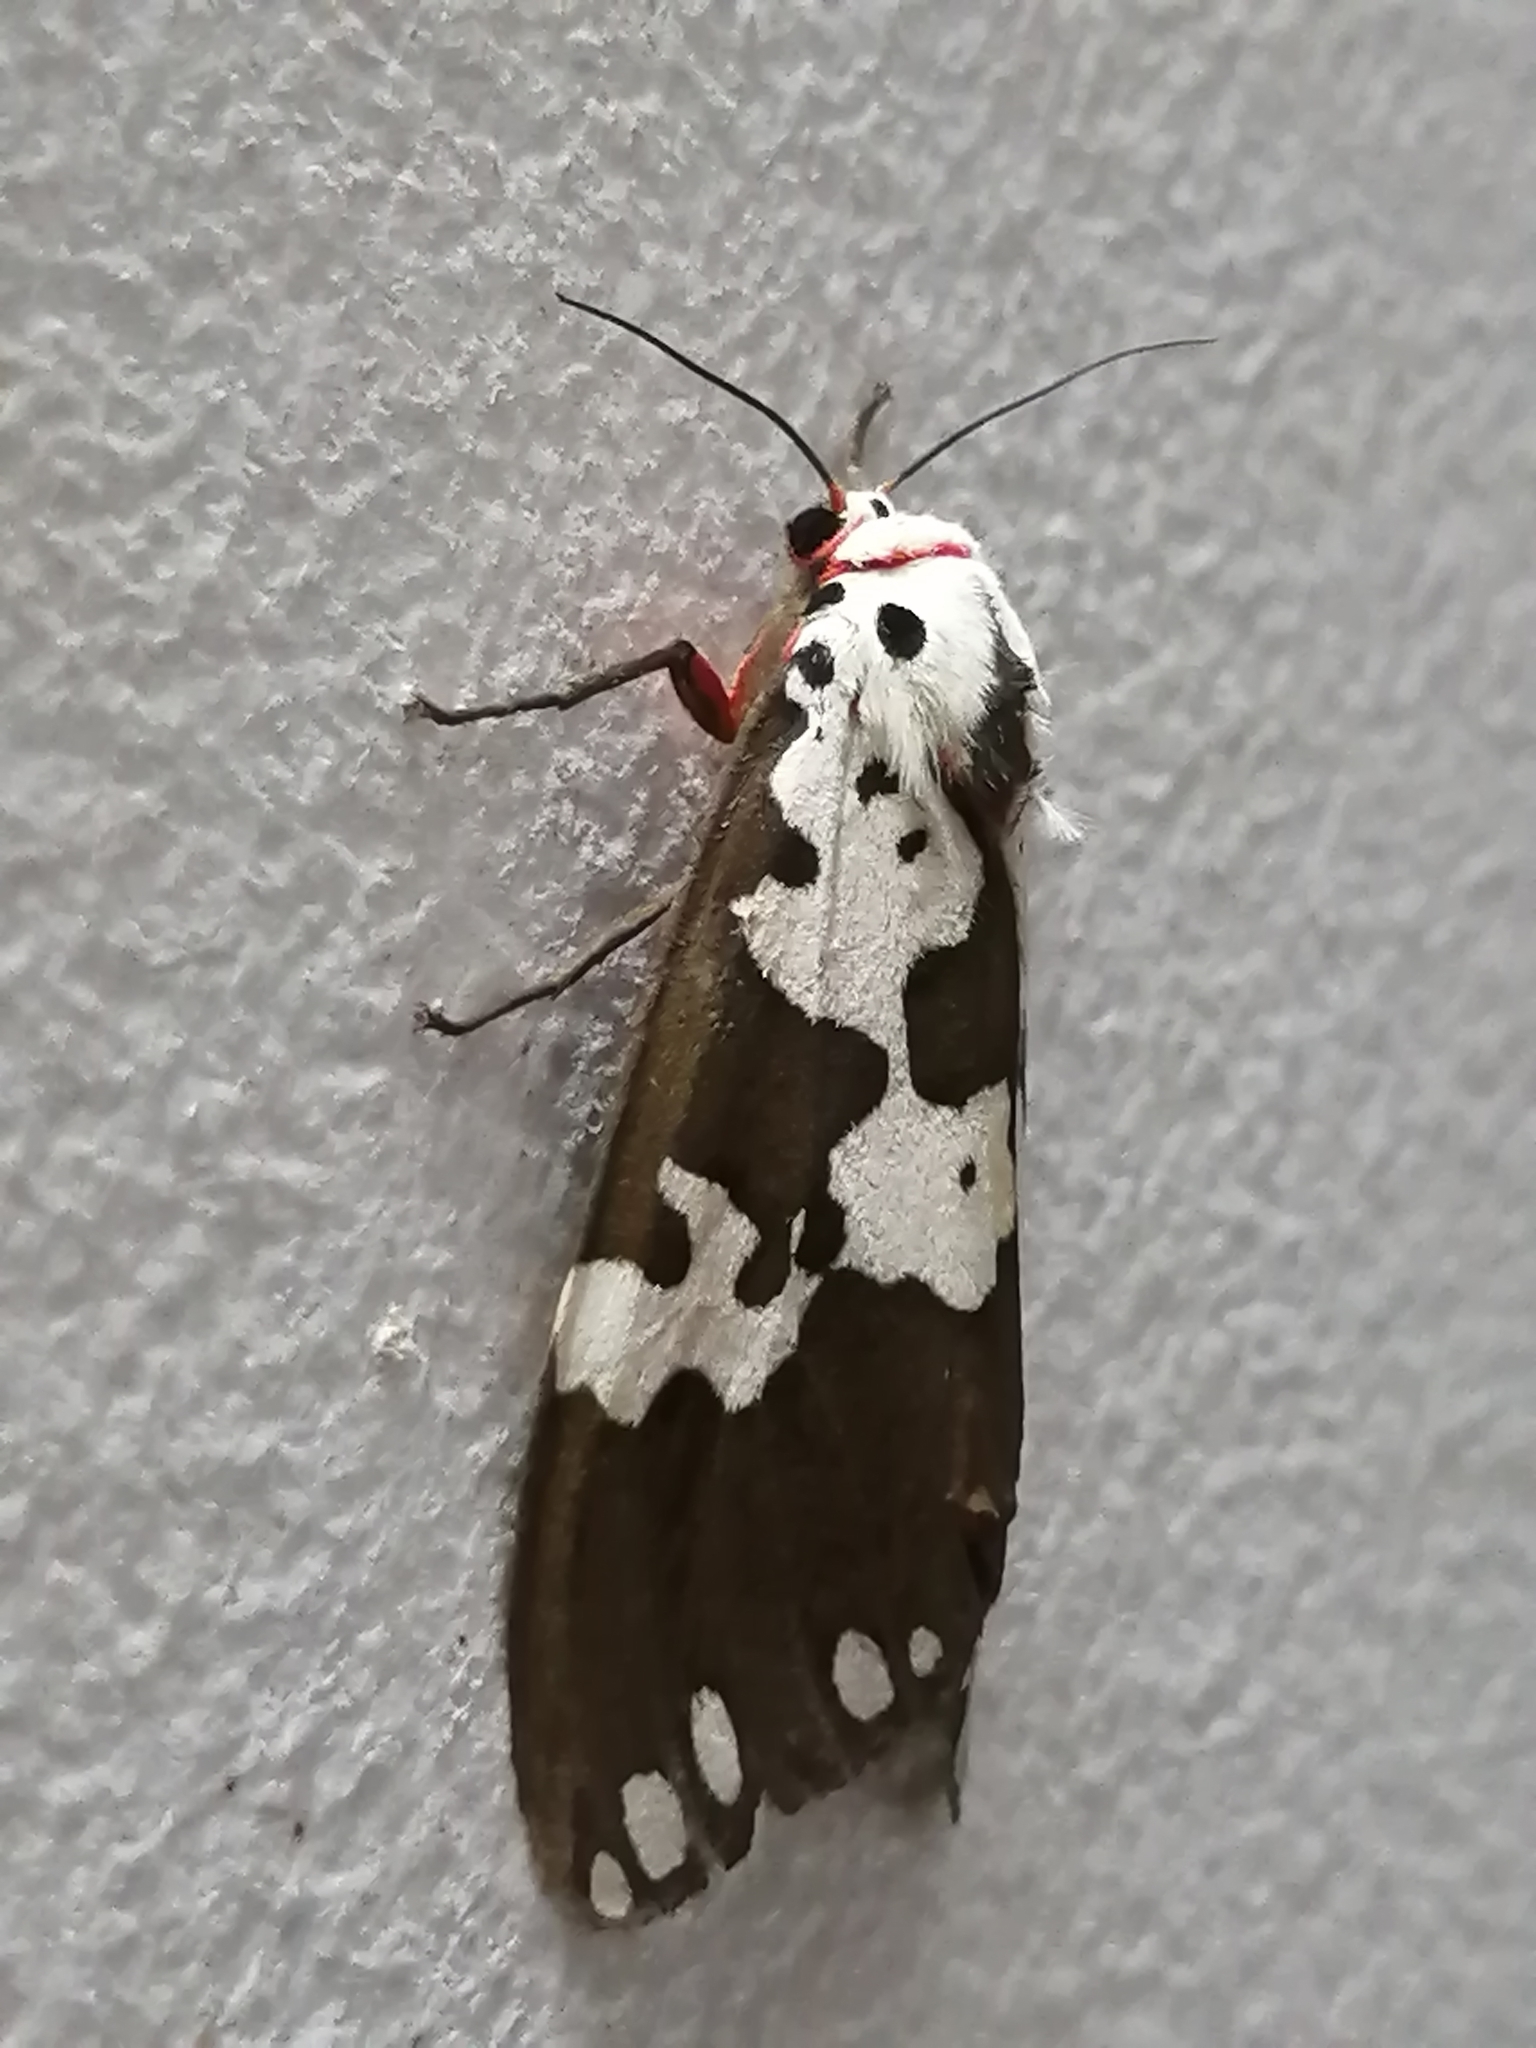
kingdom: Animalia
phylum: Arthropoda
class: Insecta
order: Lepidoptera
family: Erebidae
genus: Pericallia
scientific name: Pericallia
